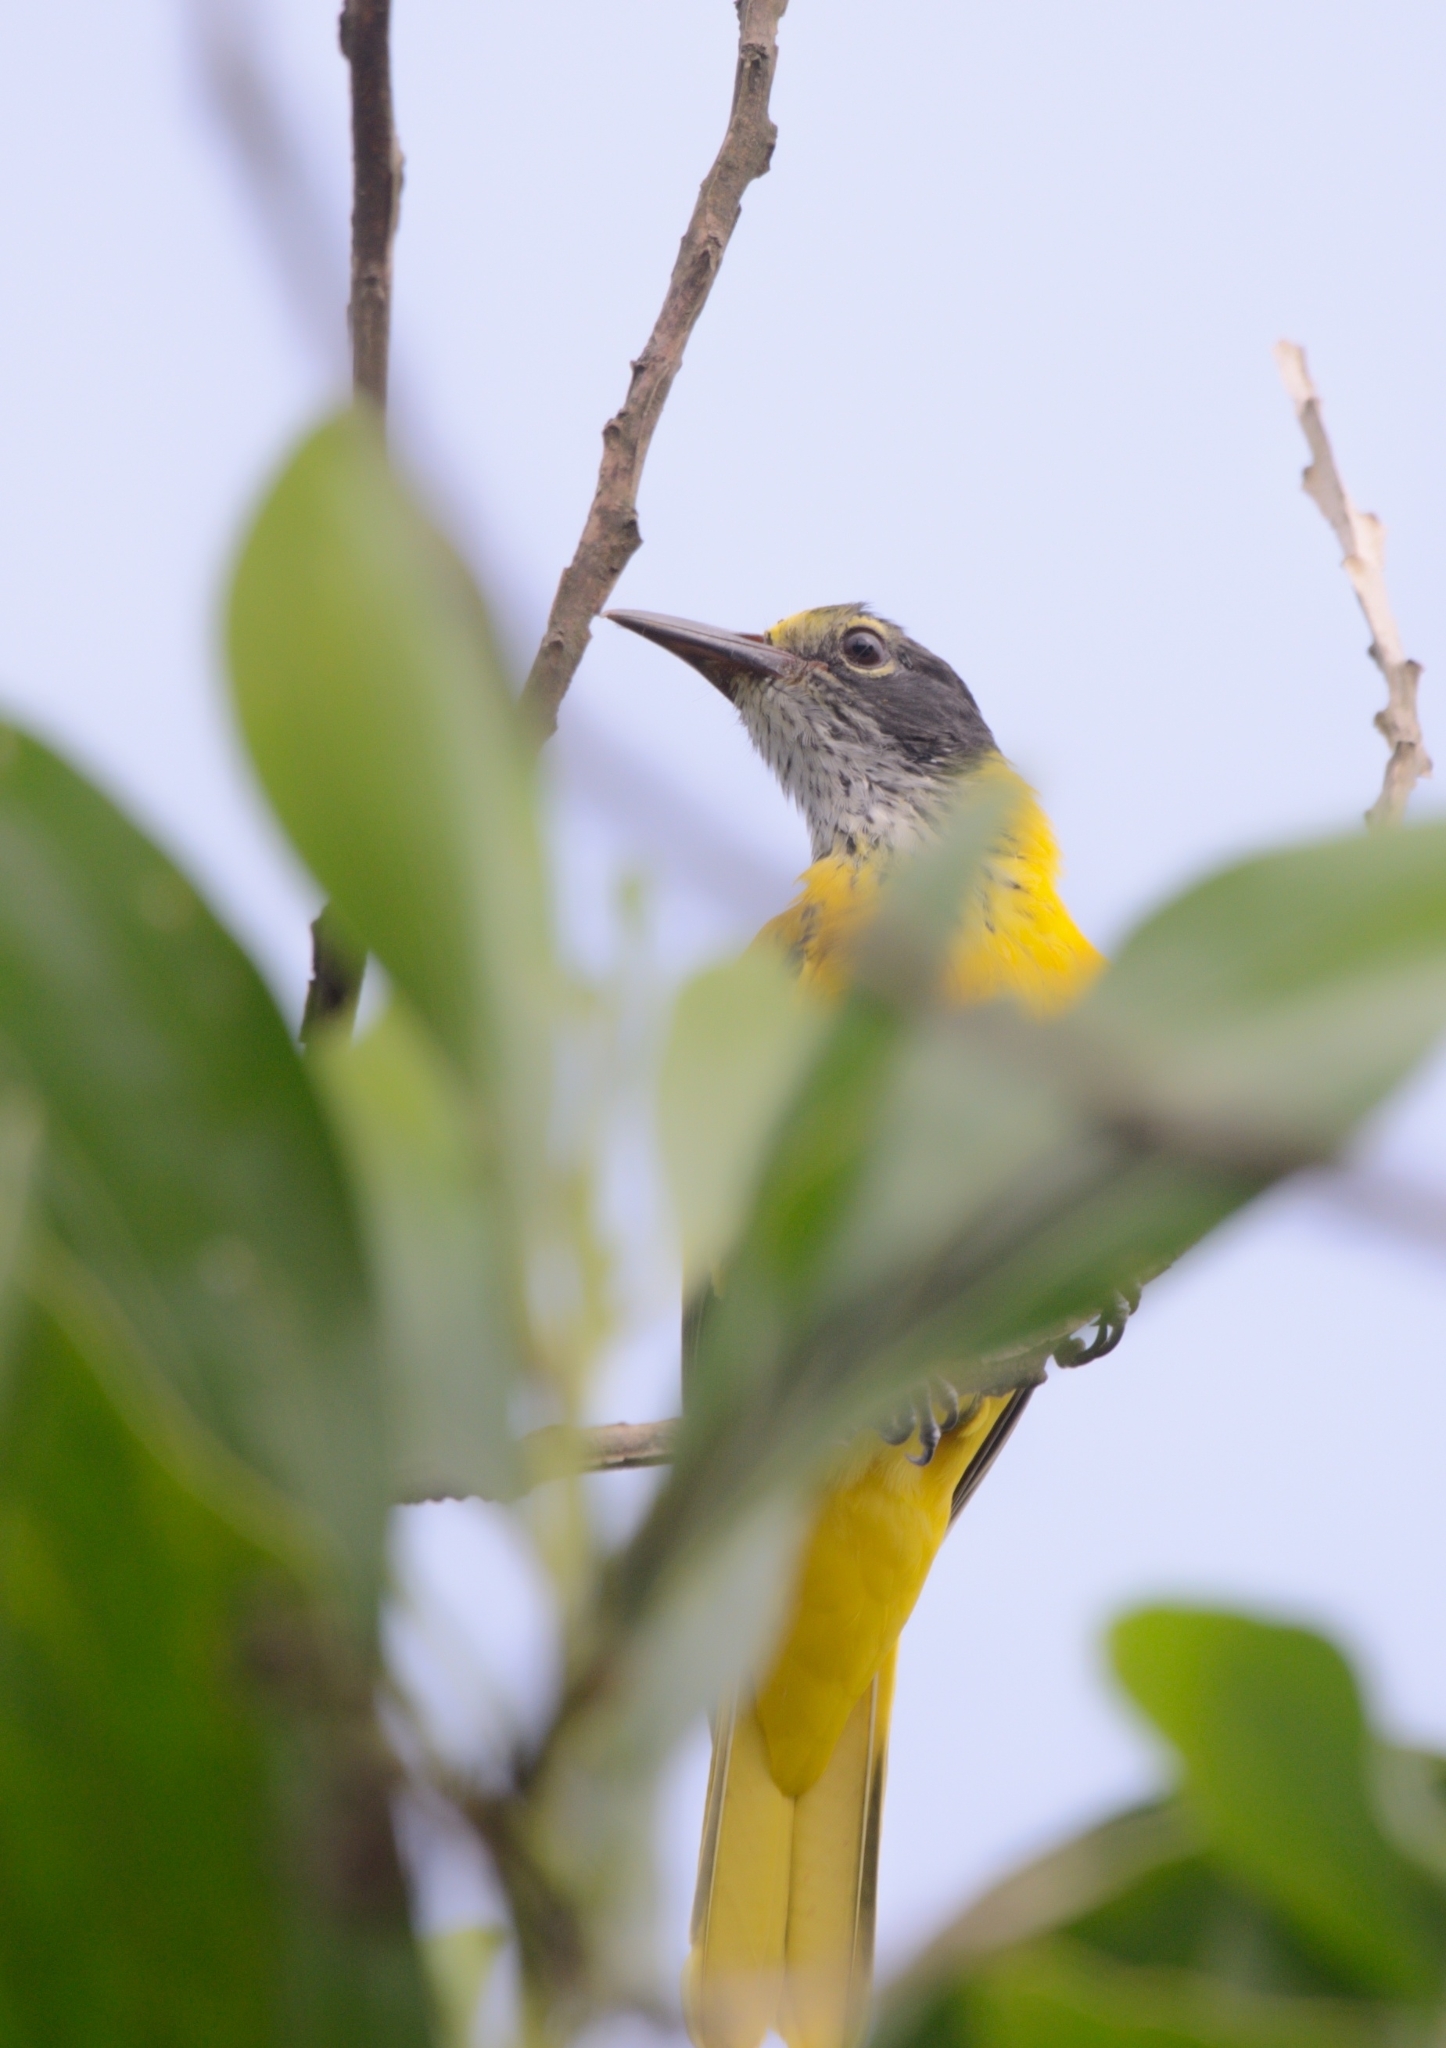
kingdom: Animalia
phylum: Chordata
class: Aves
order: Passeriformes
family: Oriolidae
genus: Oriolus
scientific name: Oriolus xanthornus
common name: Black-hooded oriole
